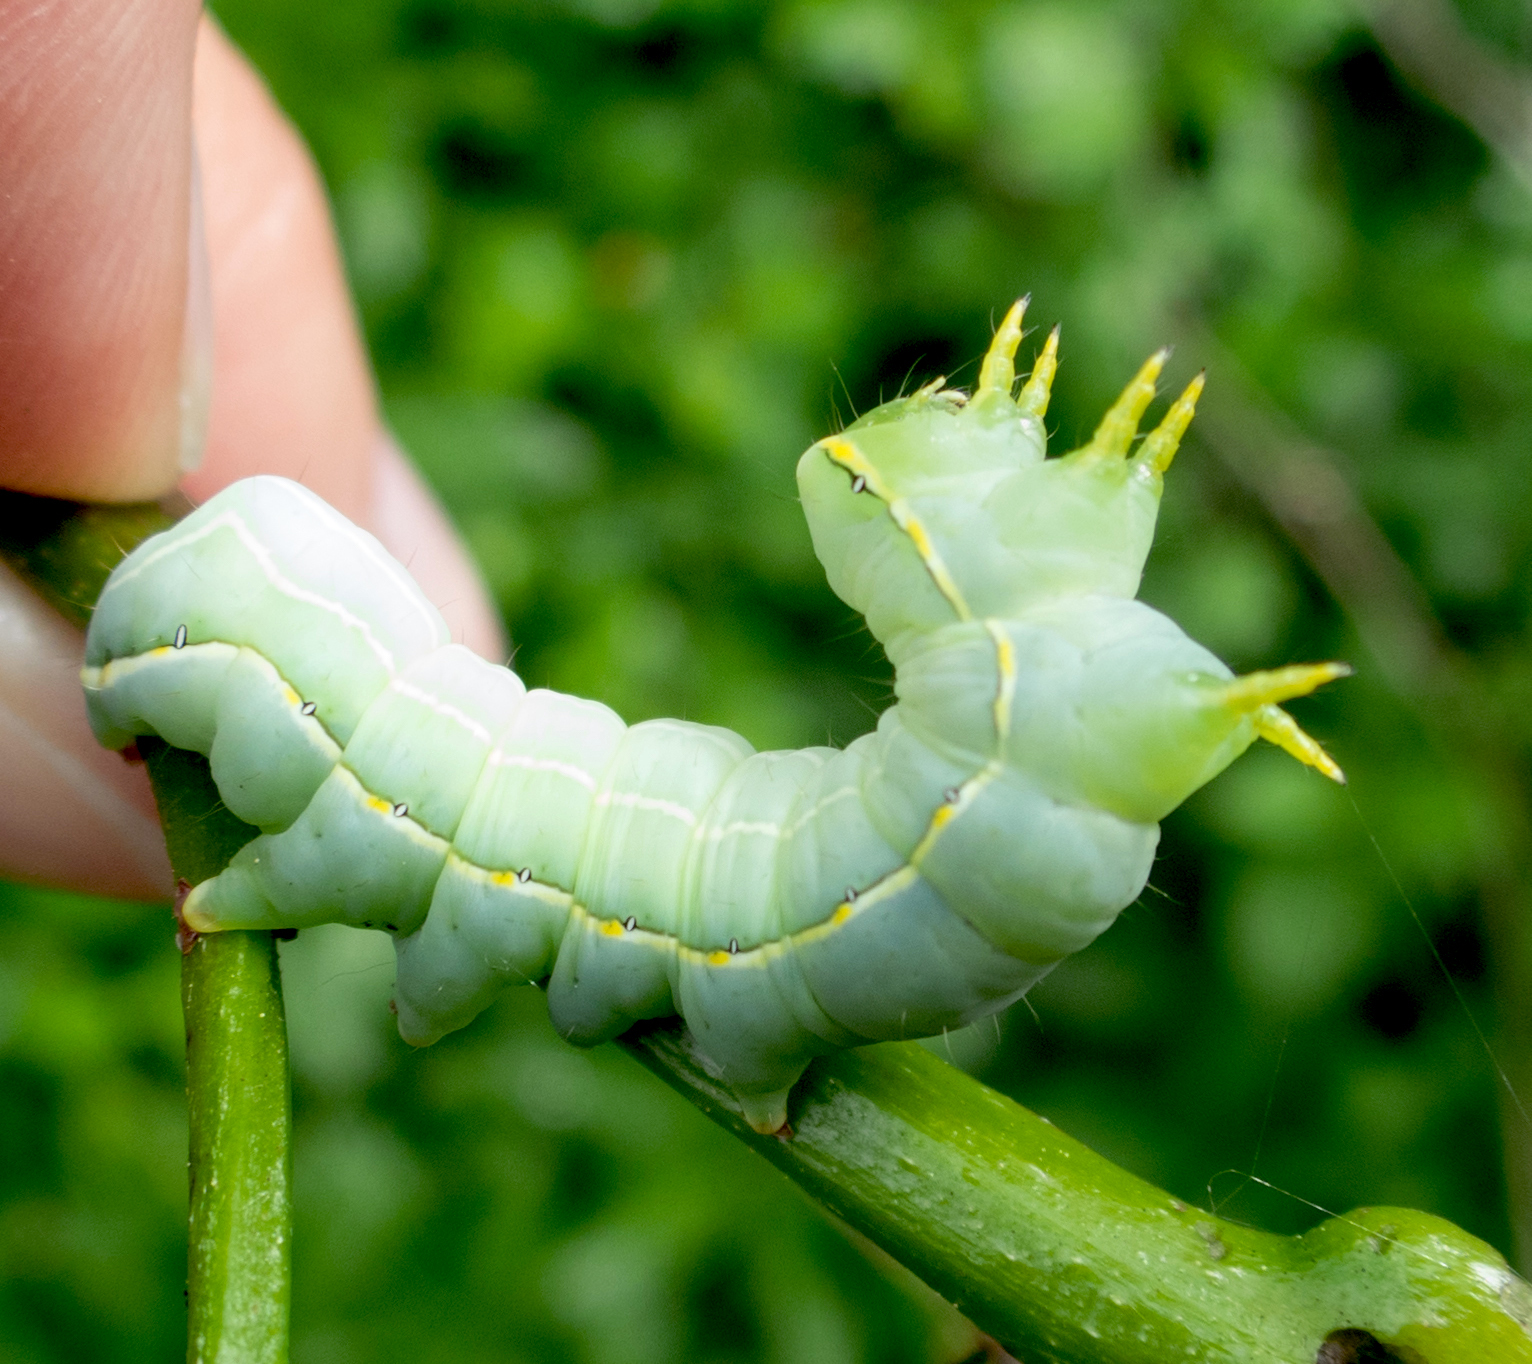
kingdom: Animalia
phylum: Arthropoda
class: Insecta
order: Lepidoptera
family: Noctuidae
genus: Asteroscopus
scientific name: Asteroscopus sphinx
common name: The sprawler
